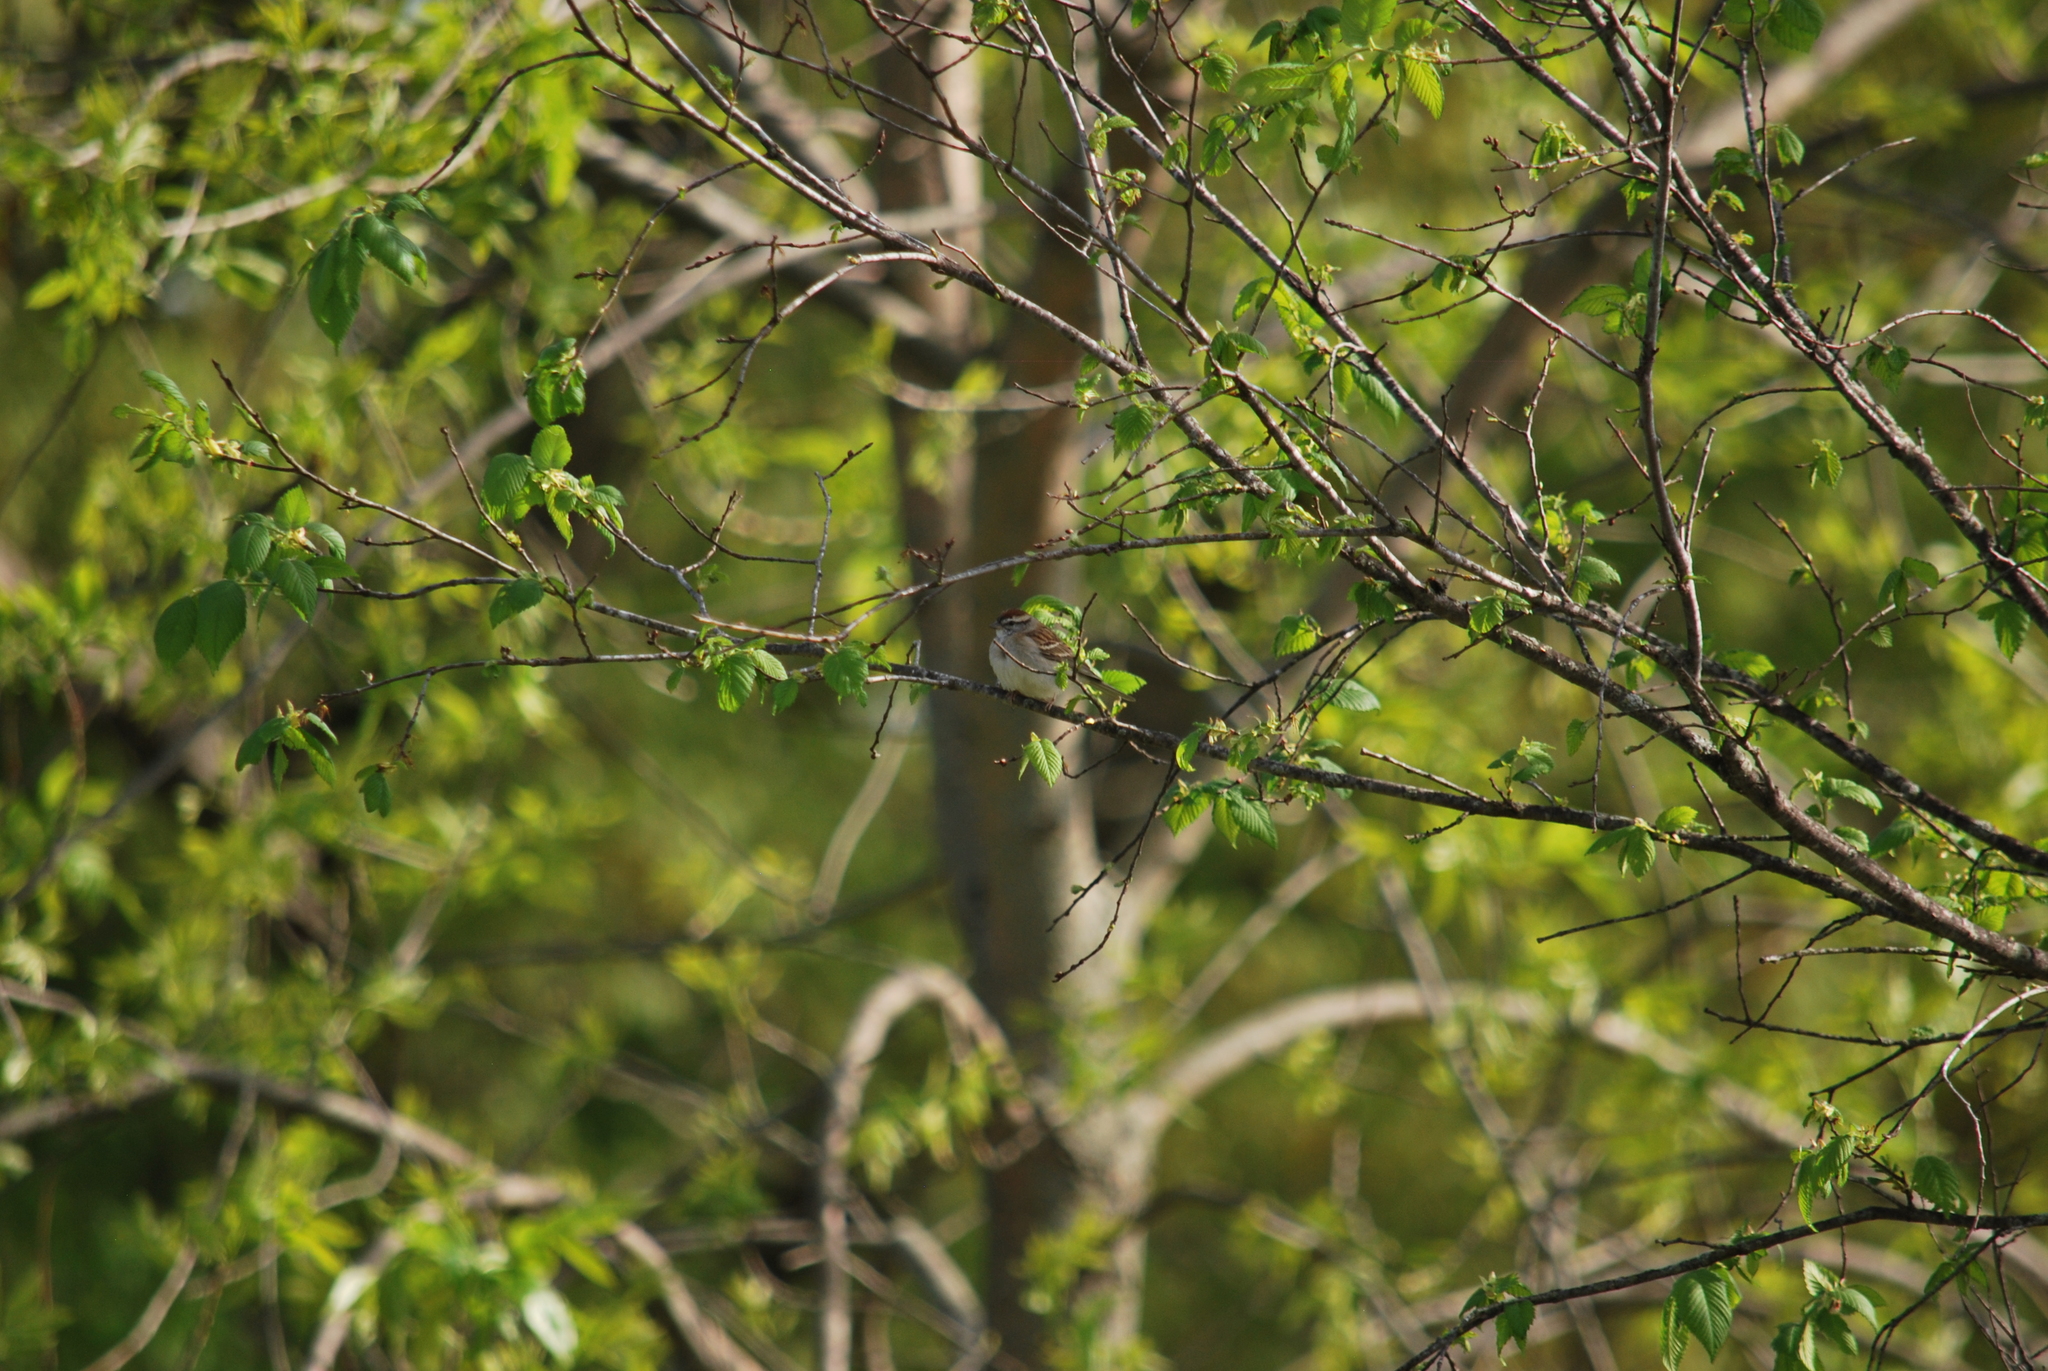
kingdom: Animalia
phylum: Chordata
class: Aves
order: Passeriformes
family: Passerellidae
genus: Spizella
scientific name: Spizella passerina
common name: Chipping sparrow
